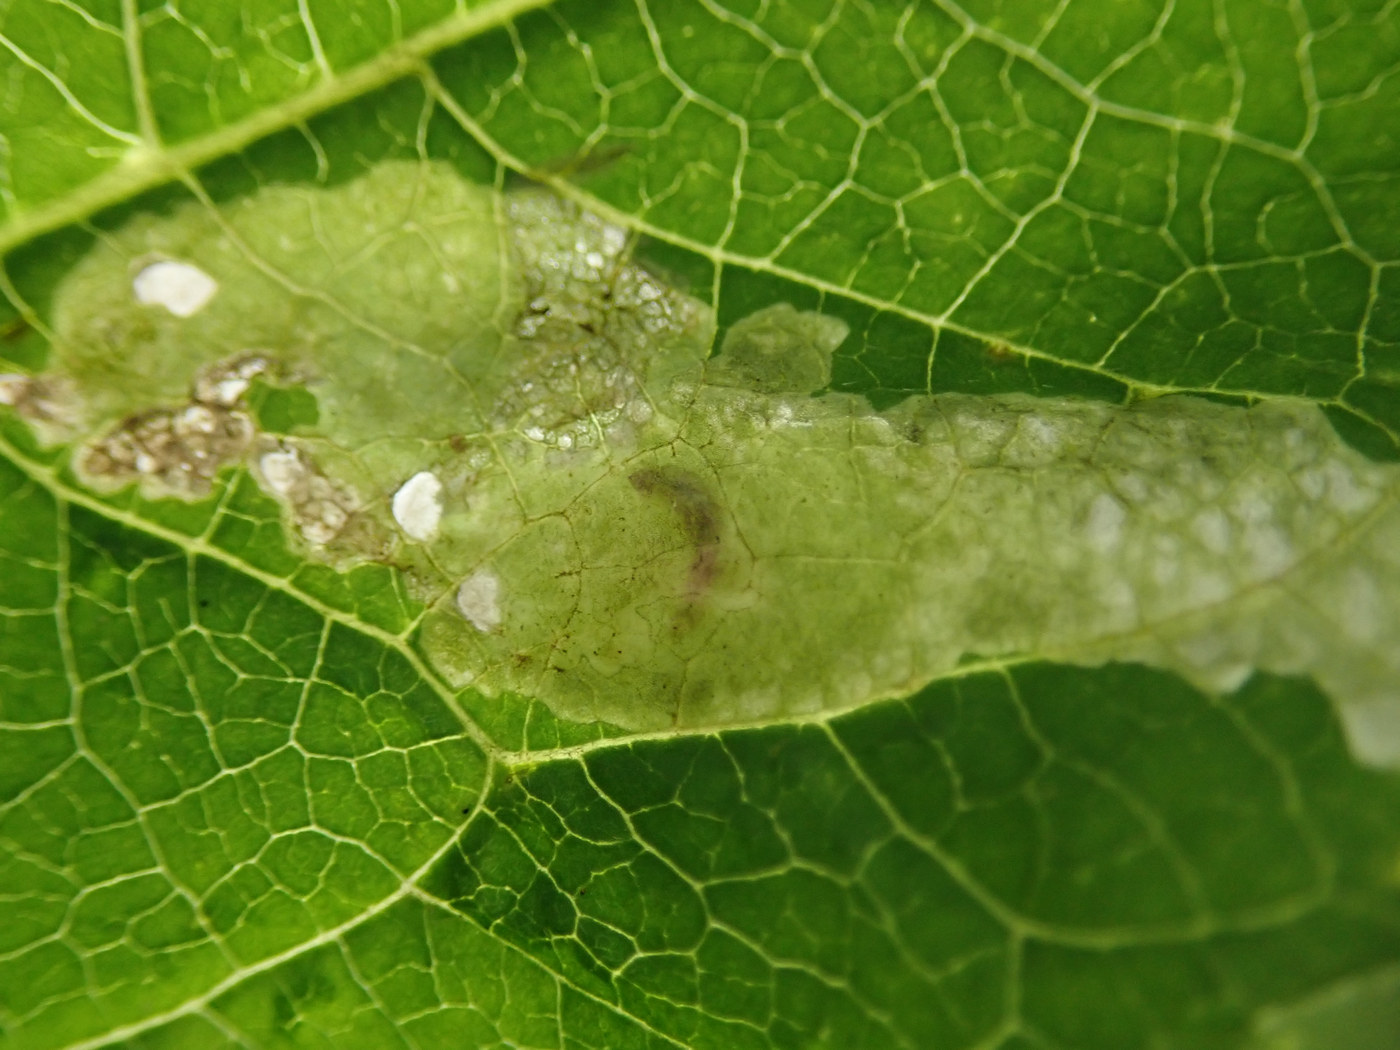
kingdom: Animalia
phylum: Arthropoda
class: Insecta
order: Lepidoptera
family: Tischeriidae
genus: Astrotischeria
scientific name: Astrotischeria heliopsisella
